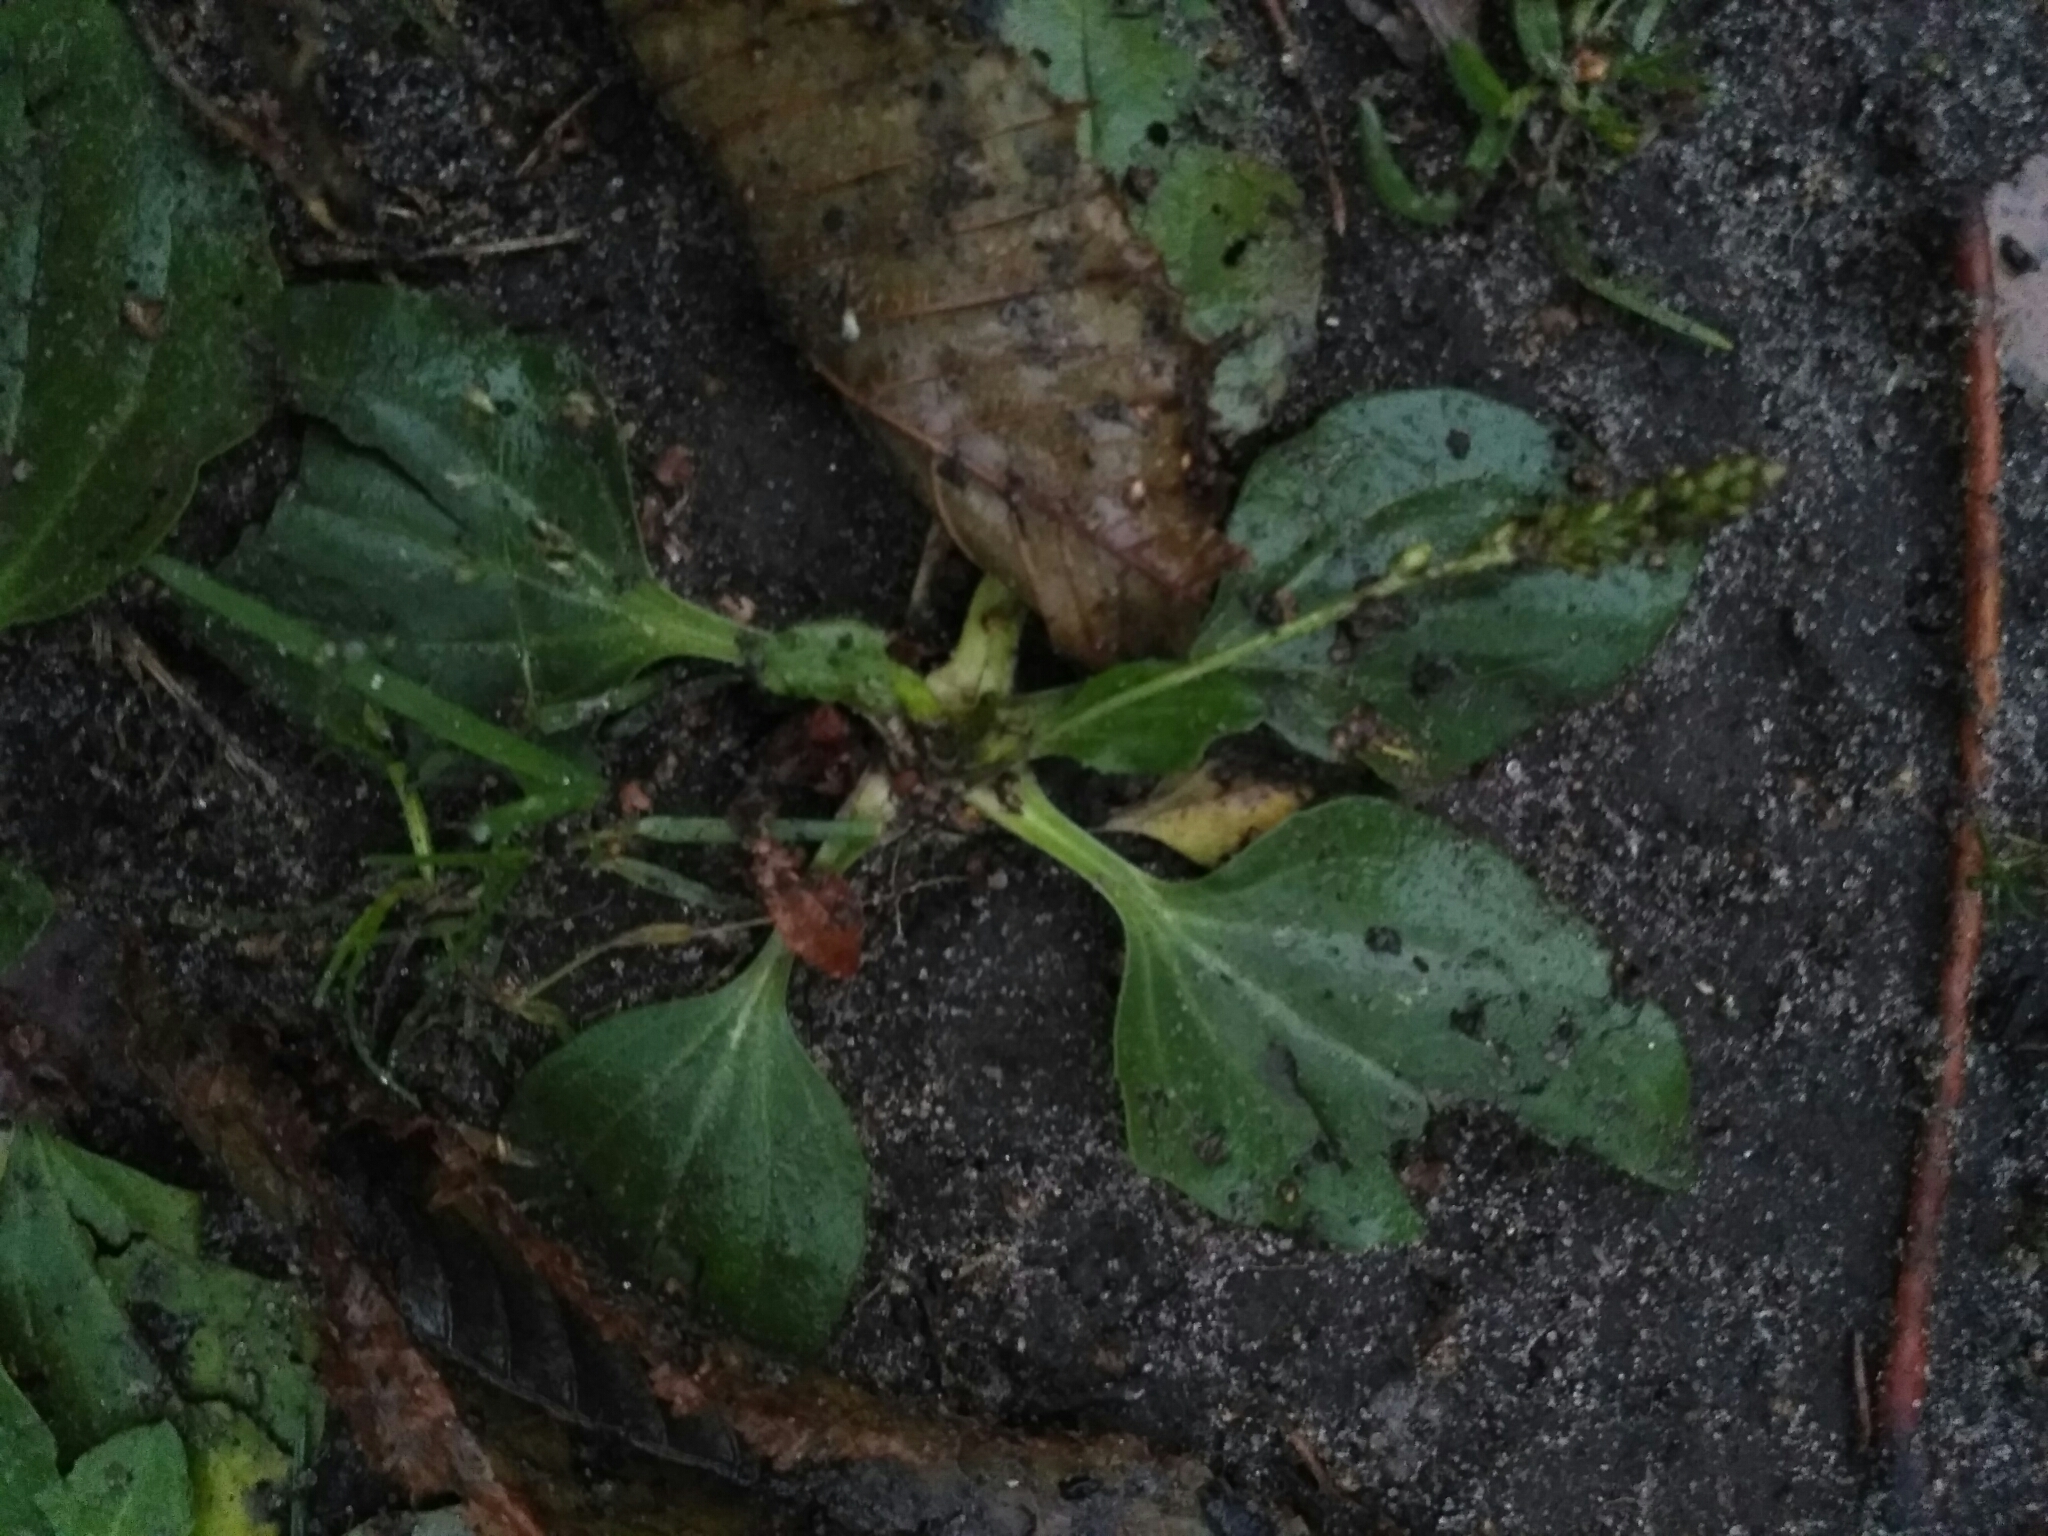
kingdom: Plantae
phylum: Tracheophyta
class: Magnoliopsida
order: Lamiales
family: Plantaginaceae
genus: Plantago
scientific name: Plantago major
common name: Common plantain
